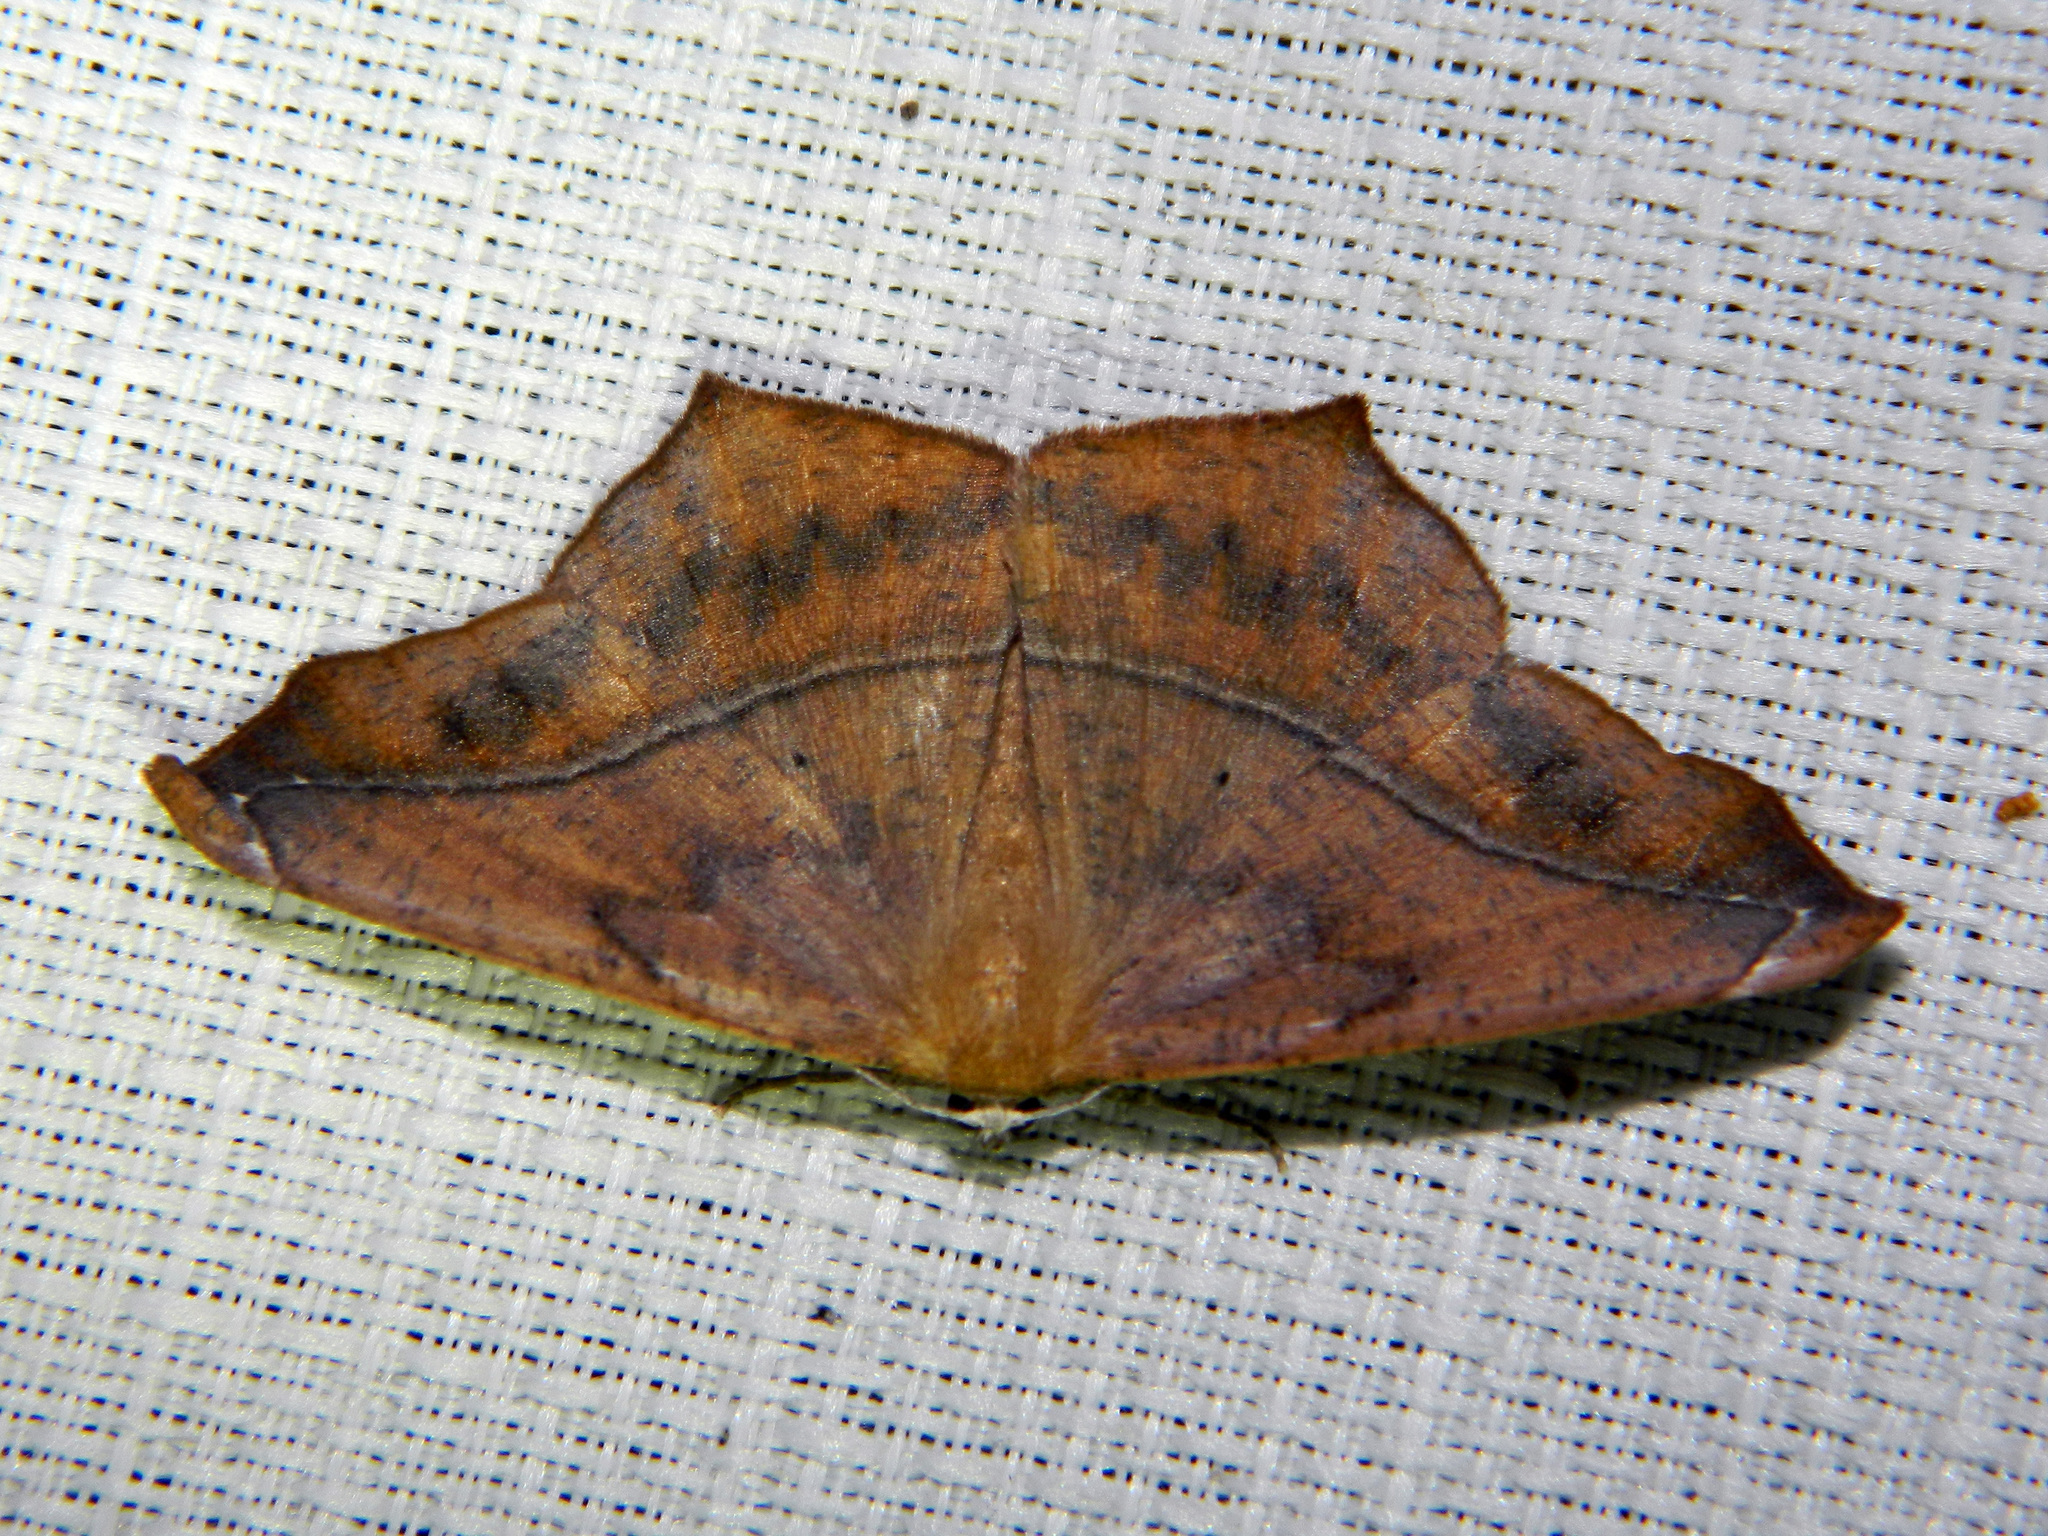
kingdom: Animalia
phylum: Arthropoda
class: Insecta
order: Lepidoptera
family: Geometridae
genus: Prochoerodes
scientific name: Prochoerodes lineola
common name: Large maple spanworm
